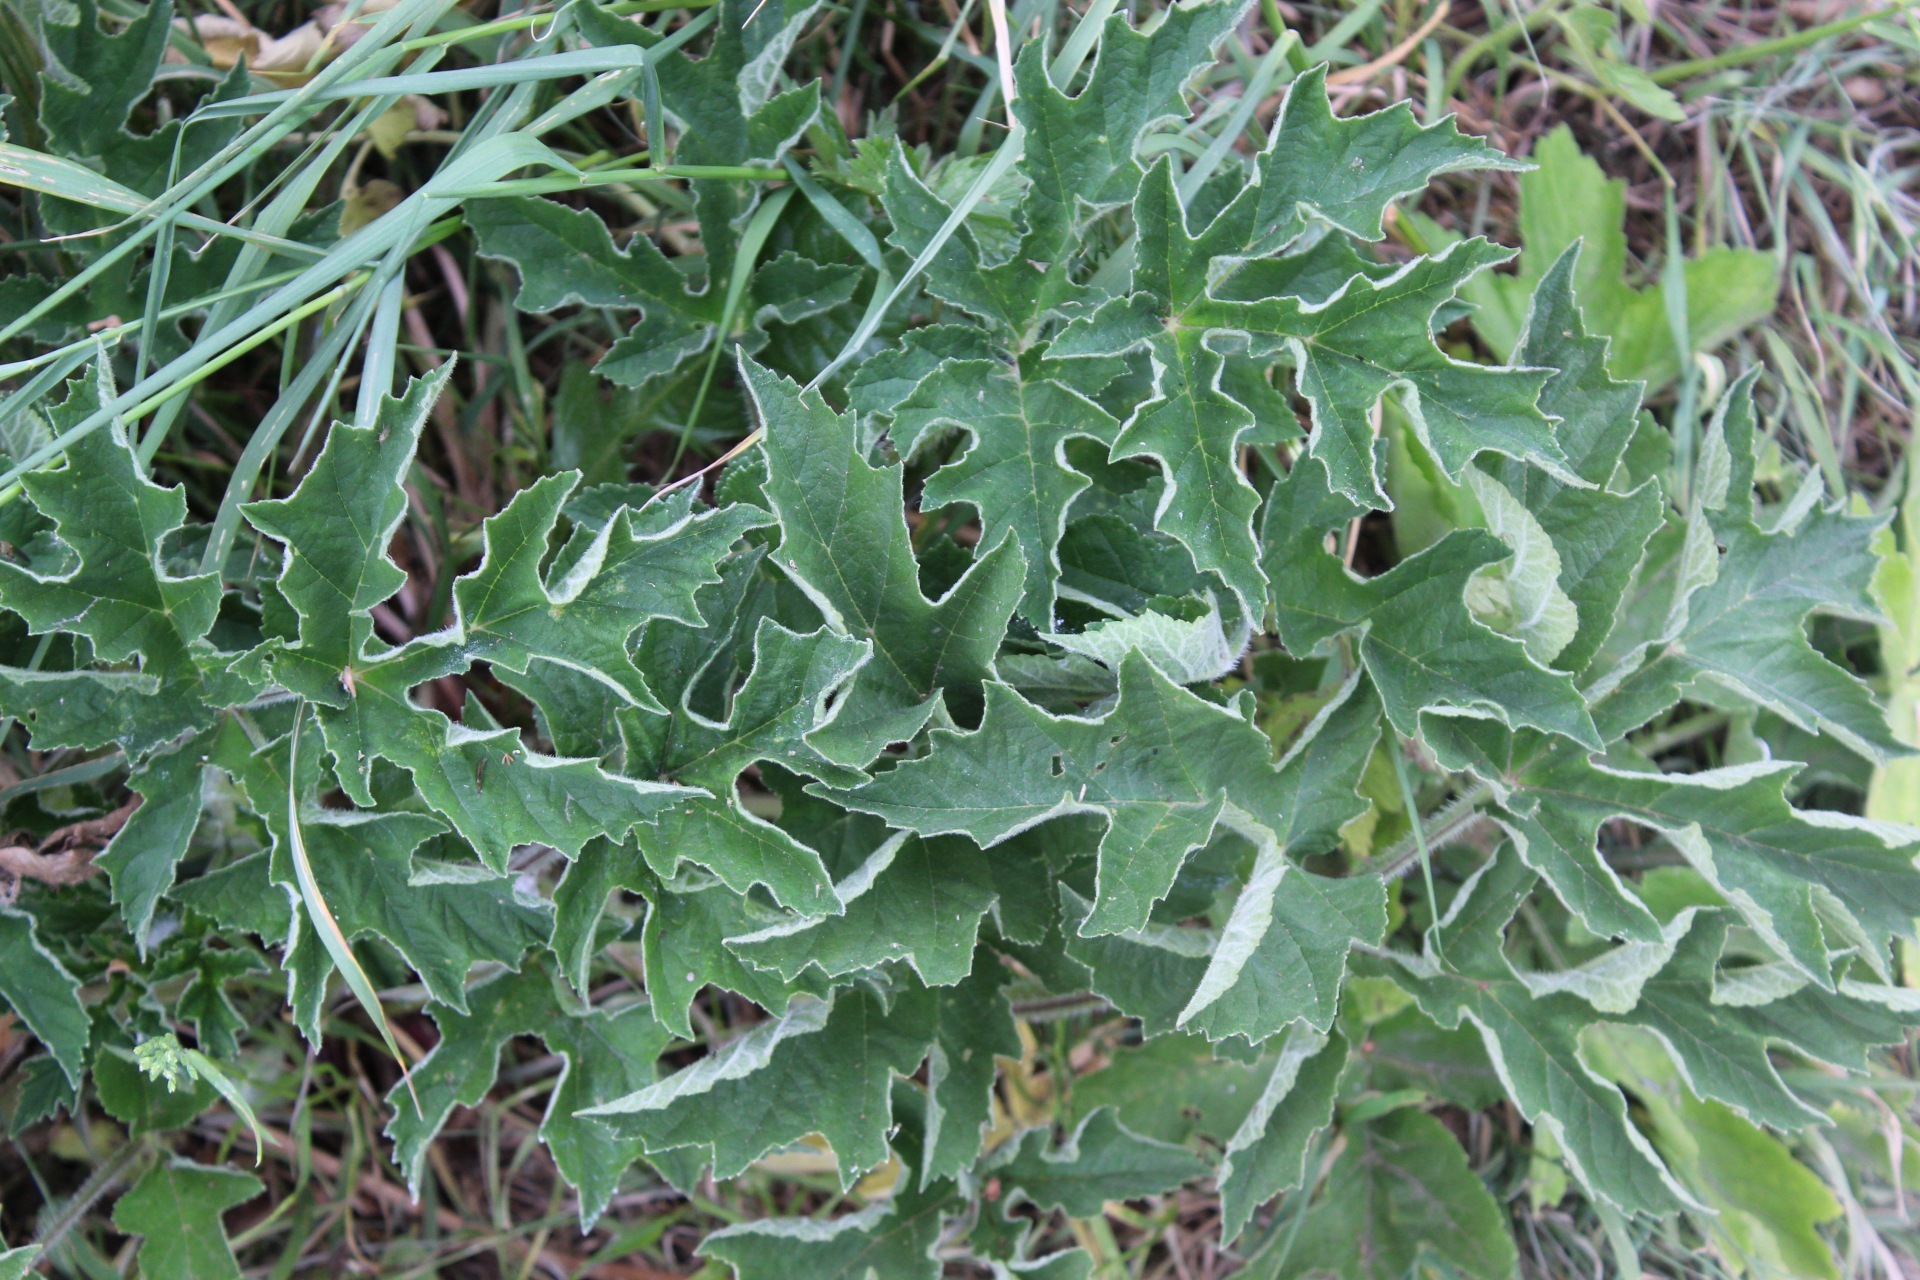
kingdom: Plantae
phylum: Tracheophyta
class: Magnoliopsida
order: Apiales
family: Apiaceae
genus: Heracleum
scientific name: Heracleum sphondylium
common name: Hogweed
